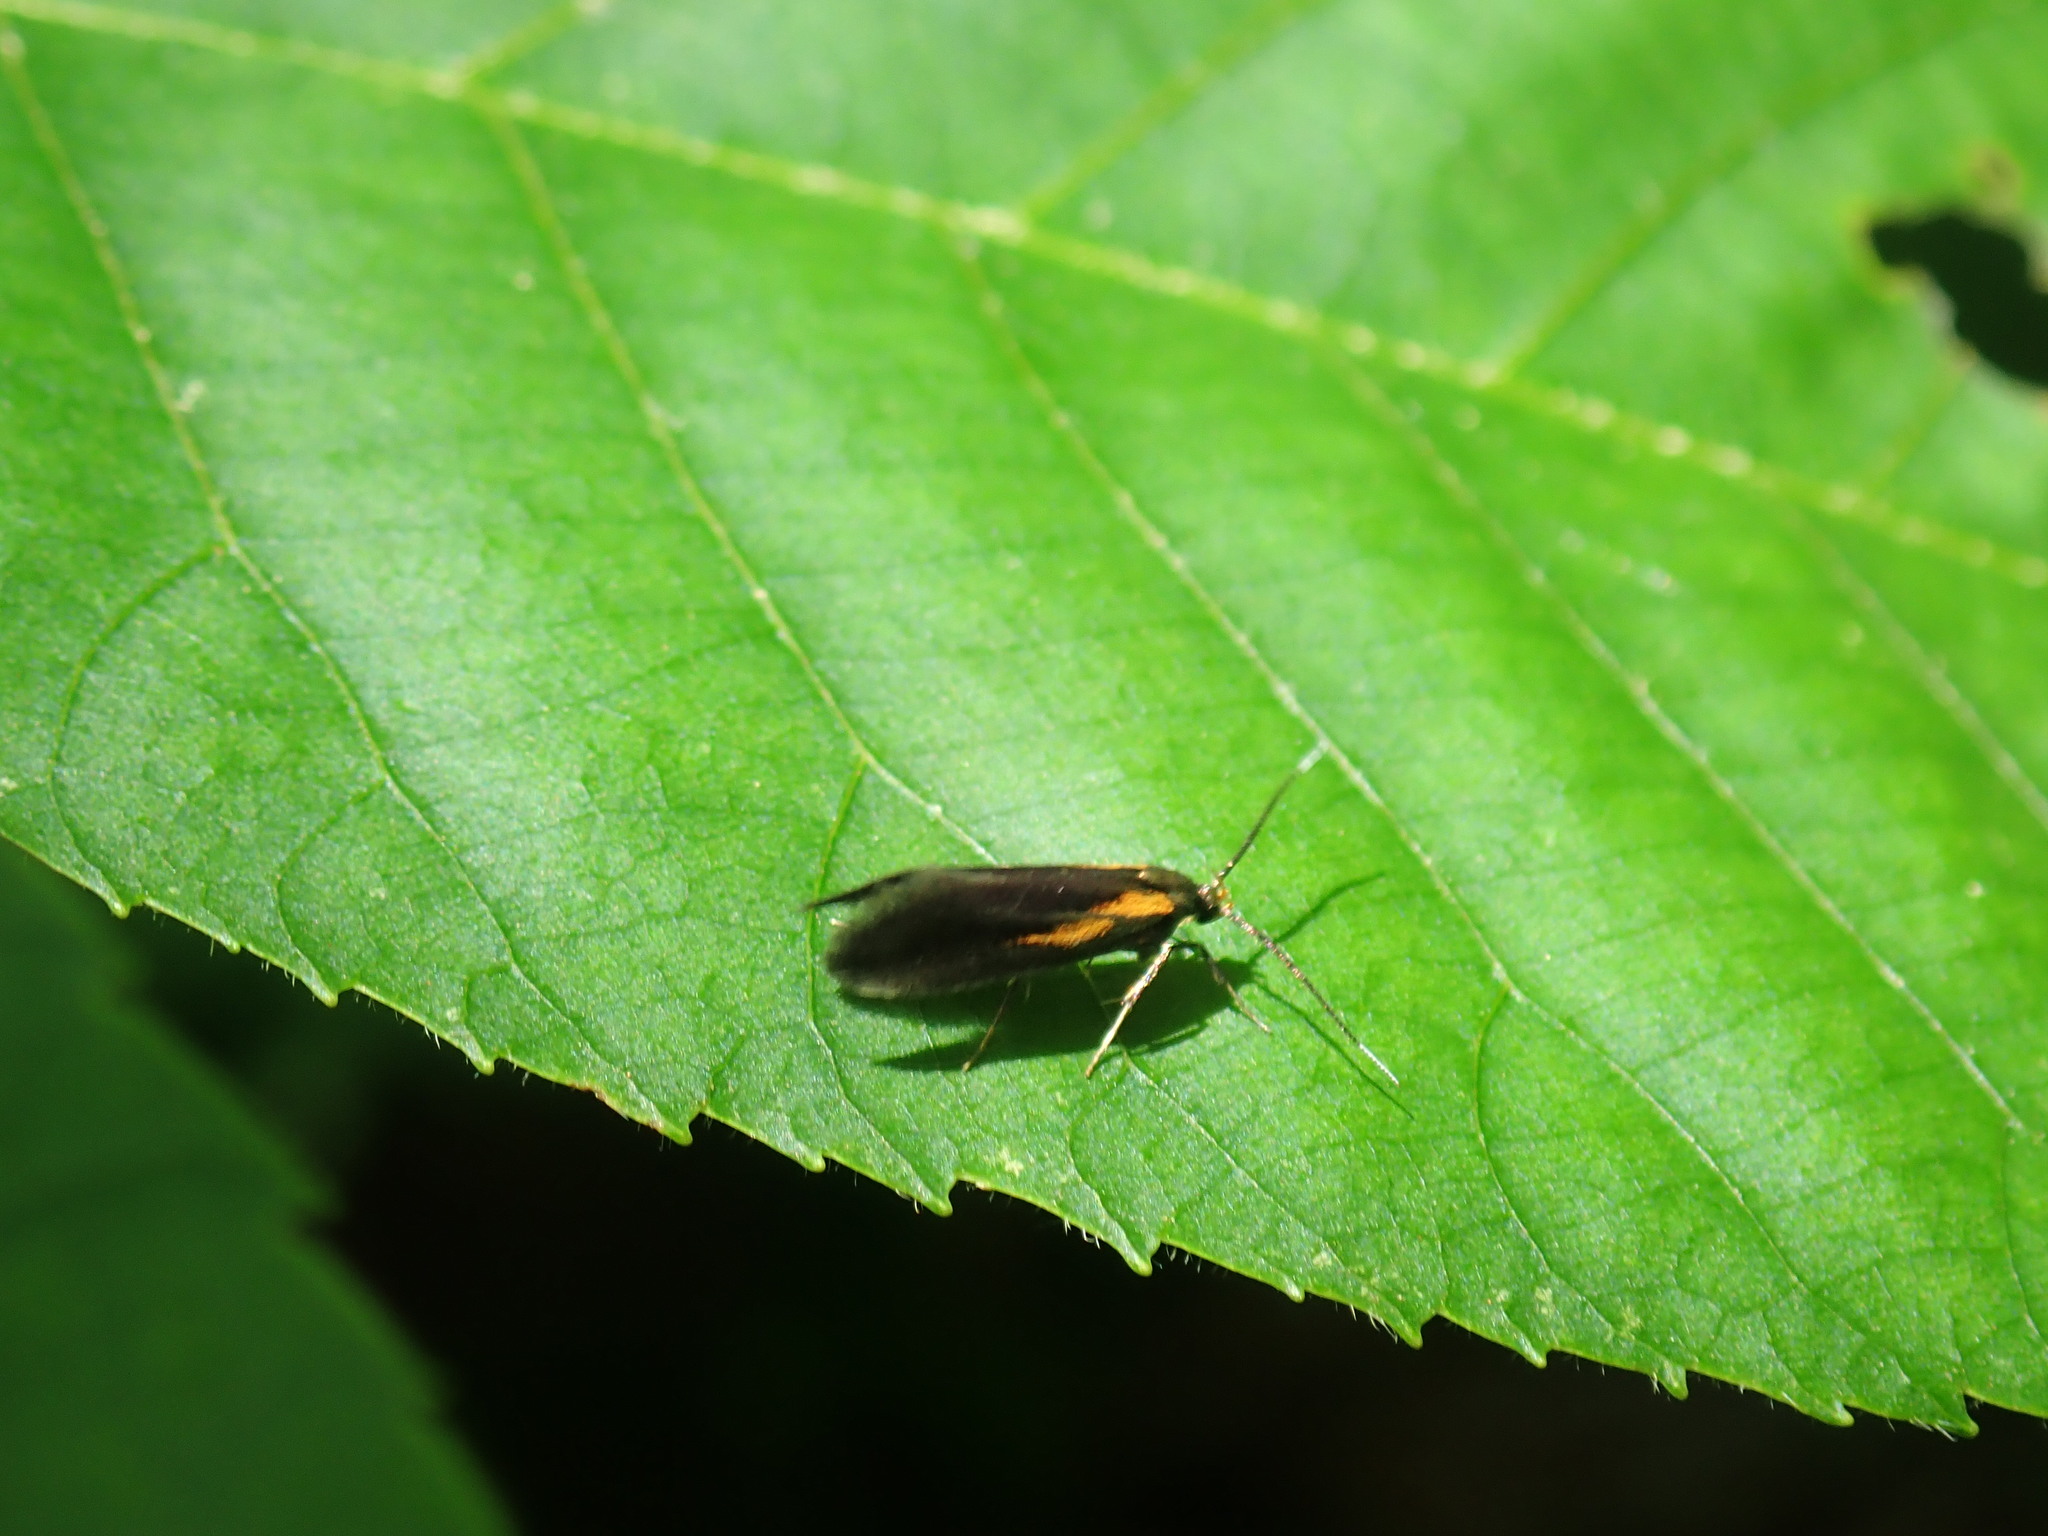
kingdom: Animalia
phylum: Arthropoda
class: Insecta
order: Lepidoptera
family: Oecophoridae
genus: Mathildana
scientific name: Mathildana newmanella
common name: Newman's mathildana moth
